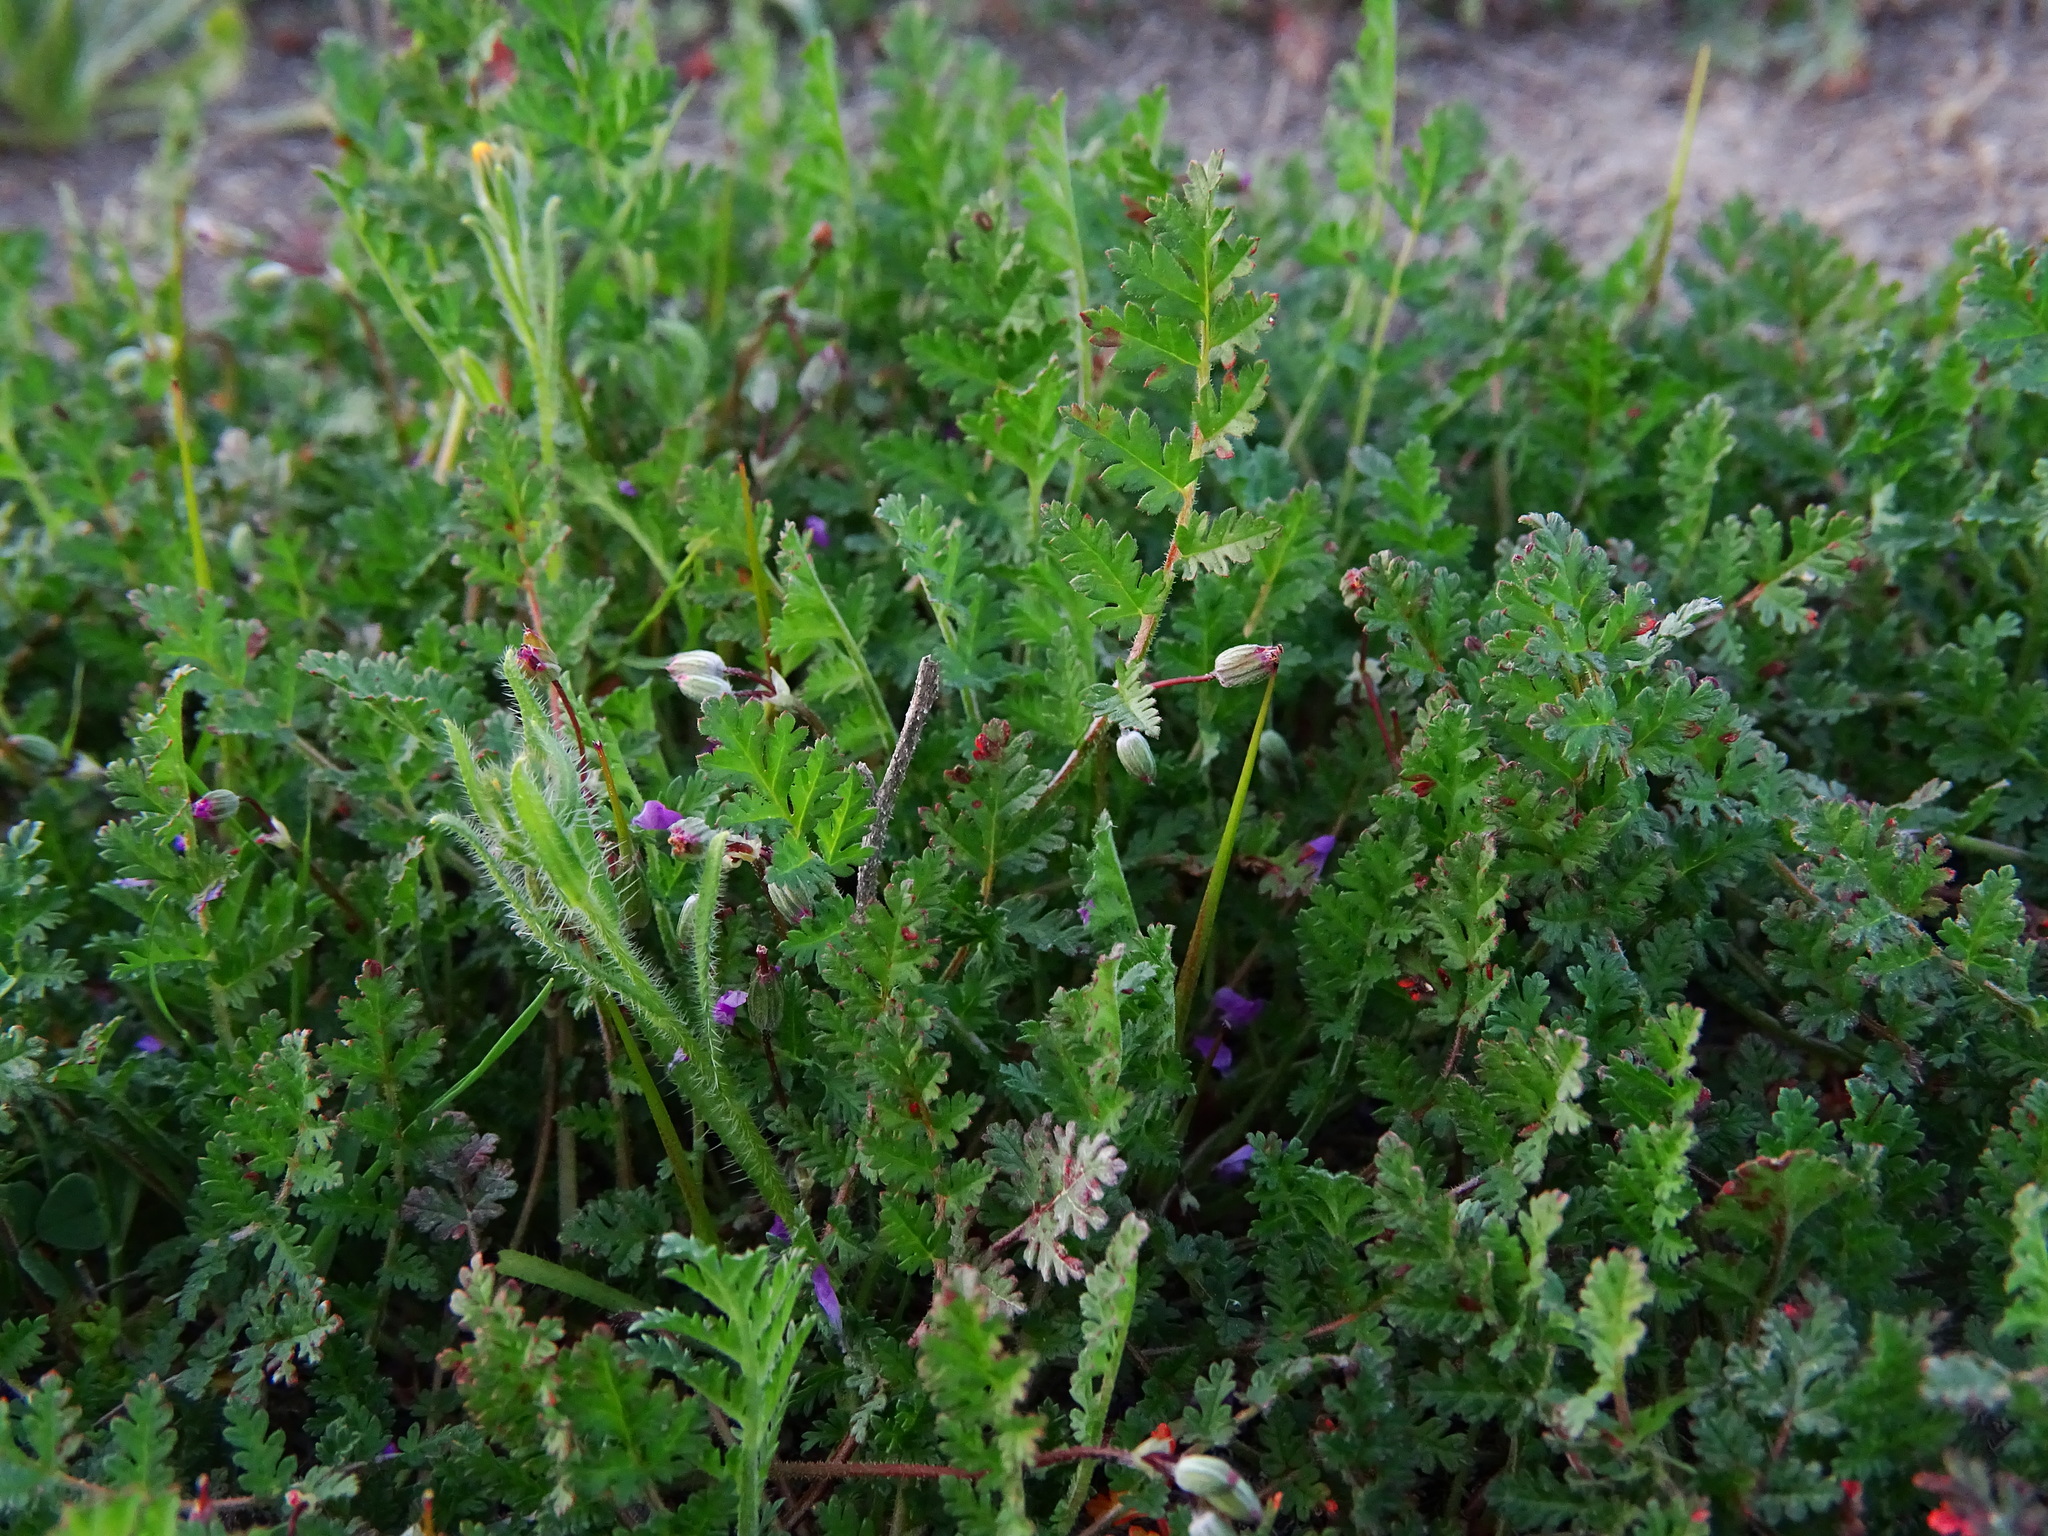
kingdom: Plantae
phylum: Tracheophyta
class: Magnoliopsida
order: Geraniales
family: Geraniaceae
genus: Erodium
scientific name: Erodium cicutarium
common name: Common stork's-bill
